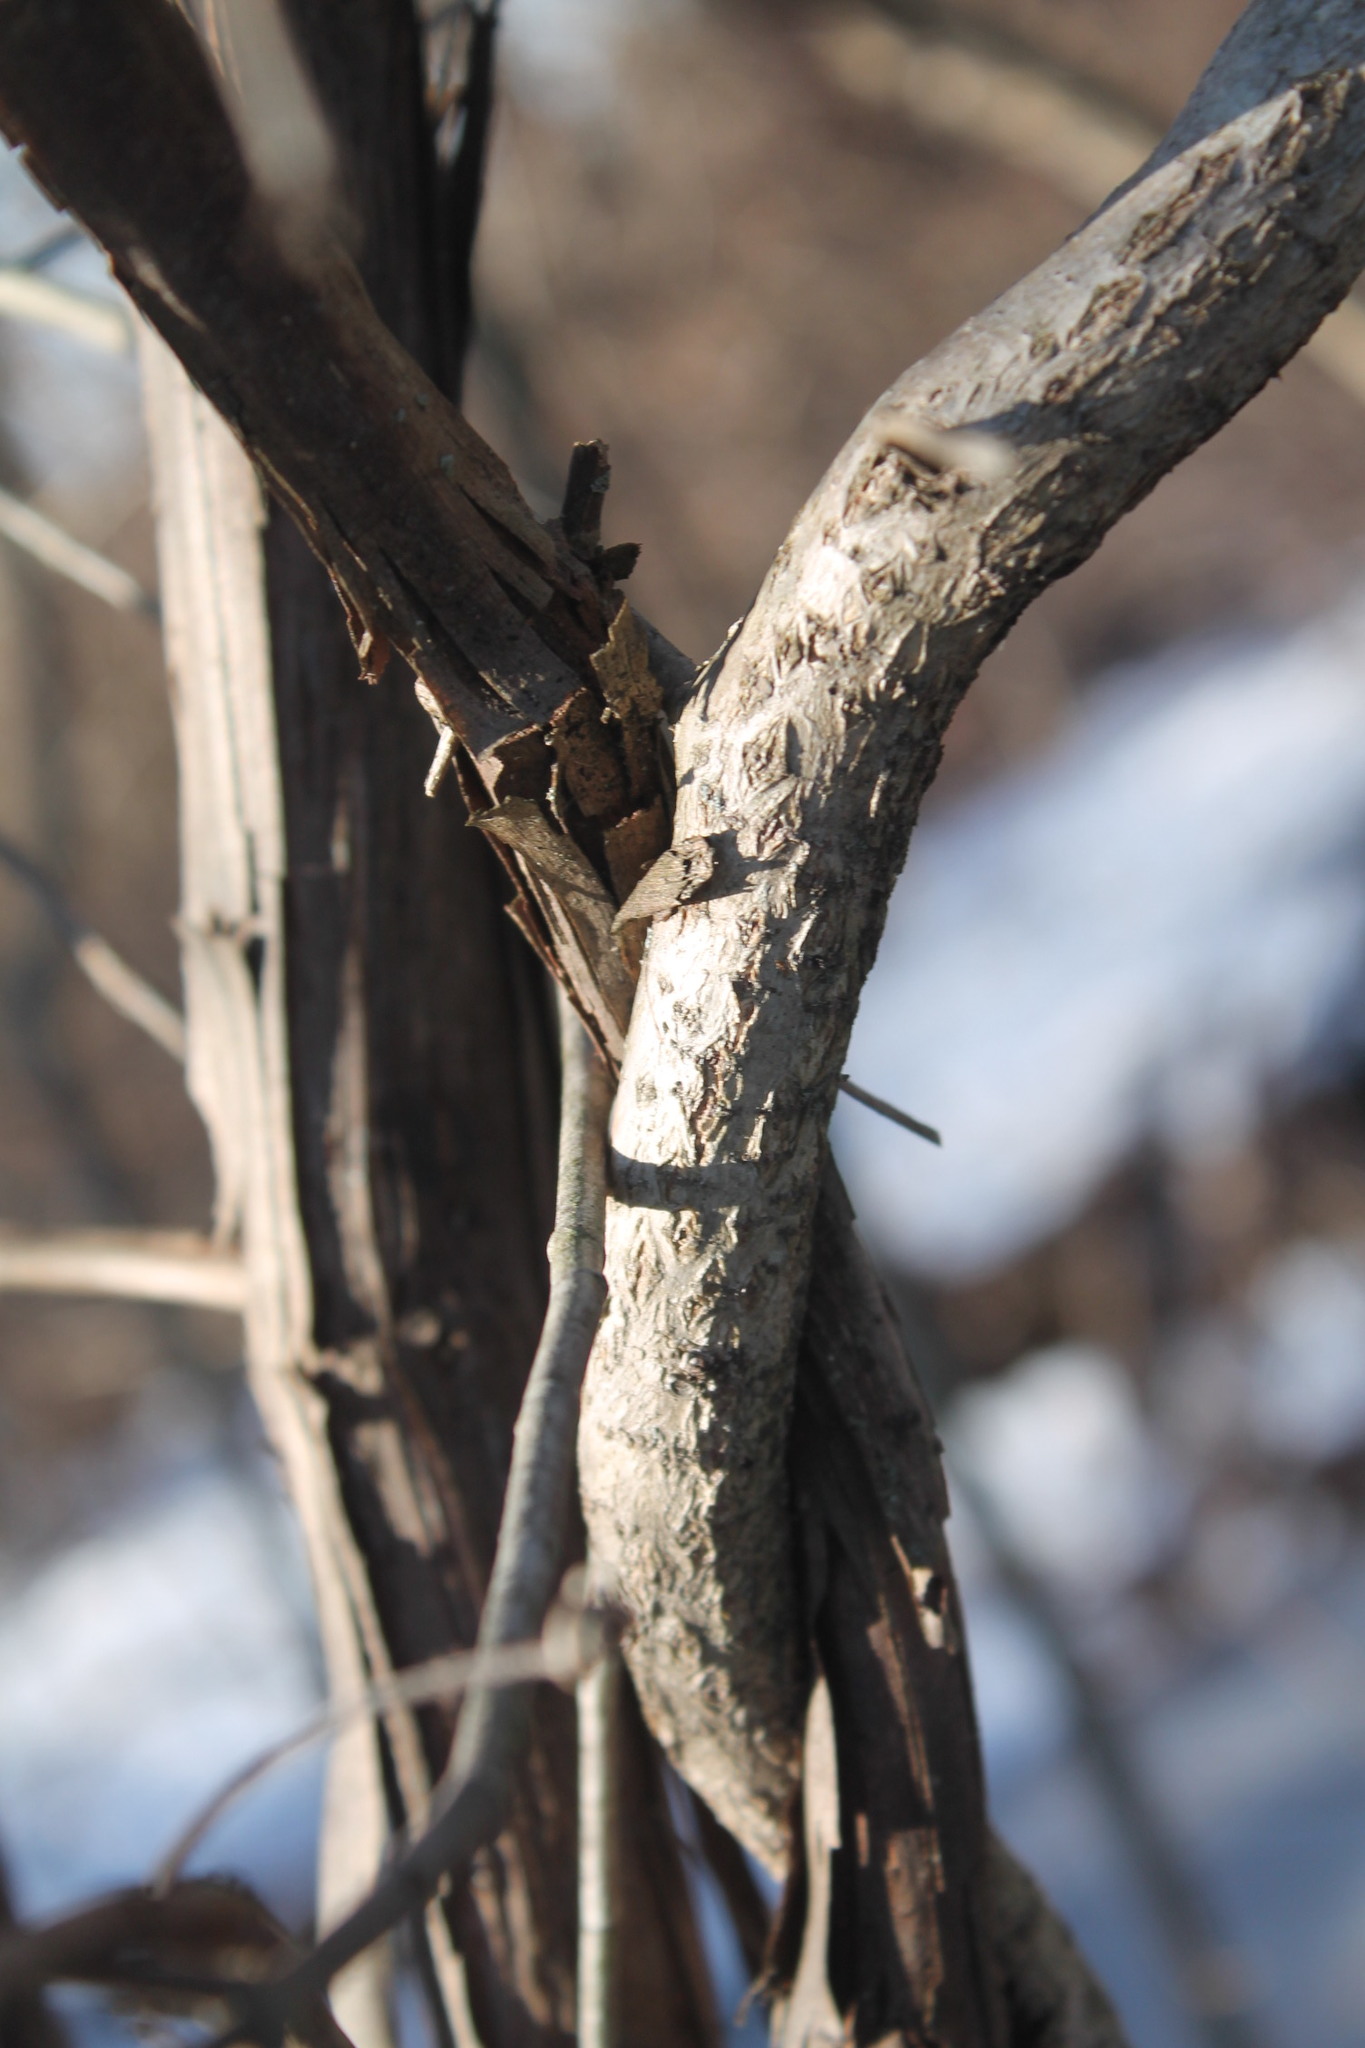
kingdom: Plantae
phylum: Tracheophyta
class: Magnoliopsida
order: Celastrales
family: Celastraceae
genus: Celastrus
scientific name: Celastrus orbiculatus
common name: Oriental bittersweet
